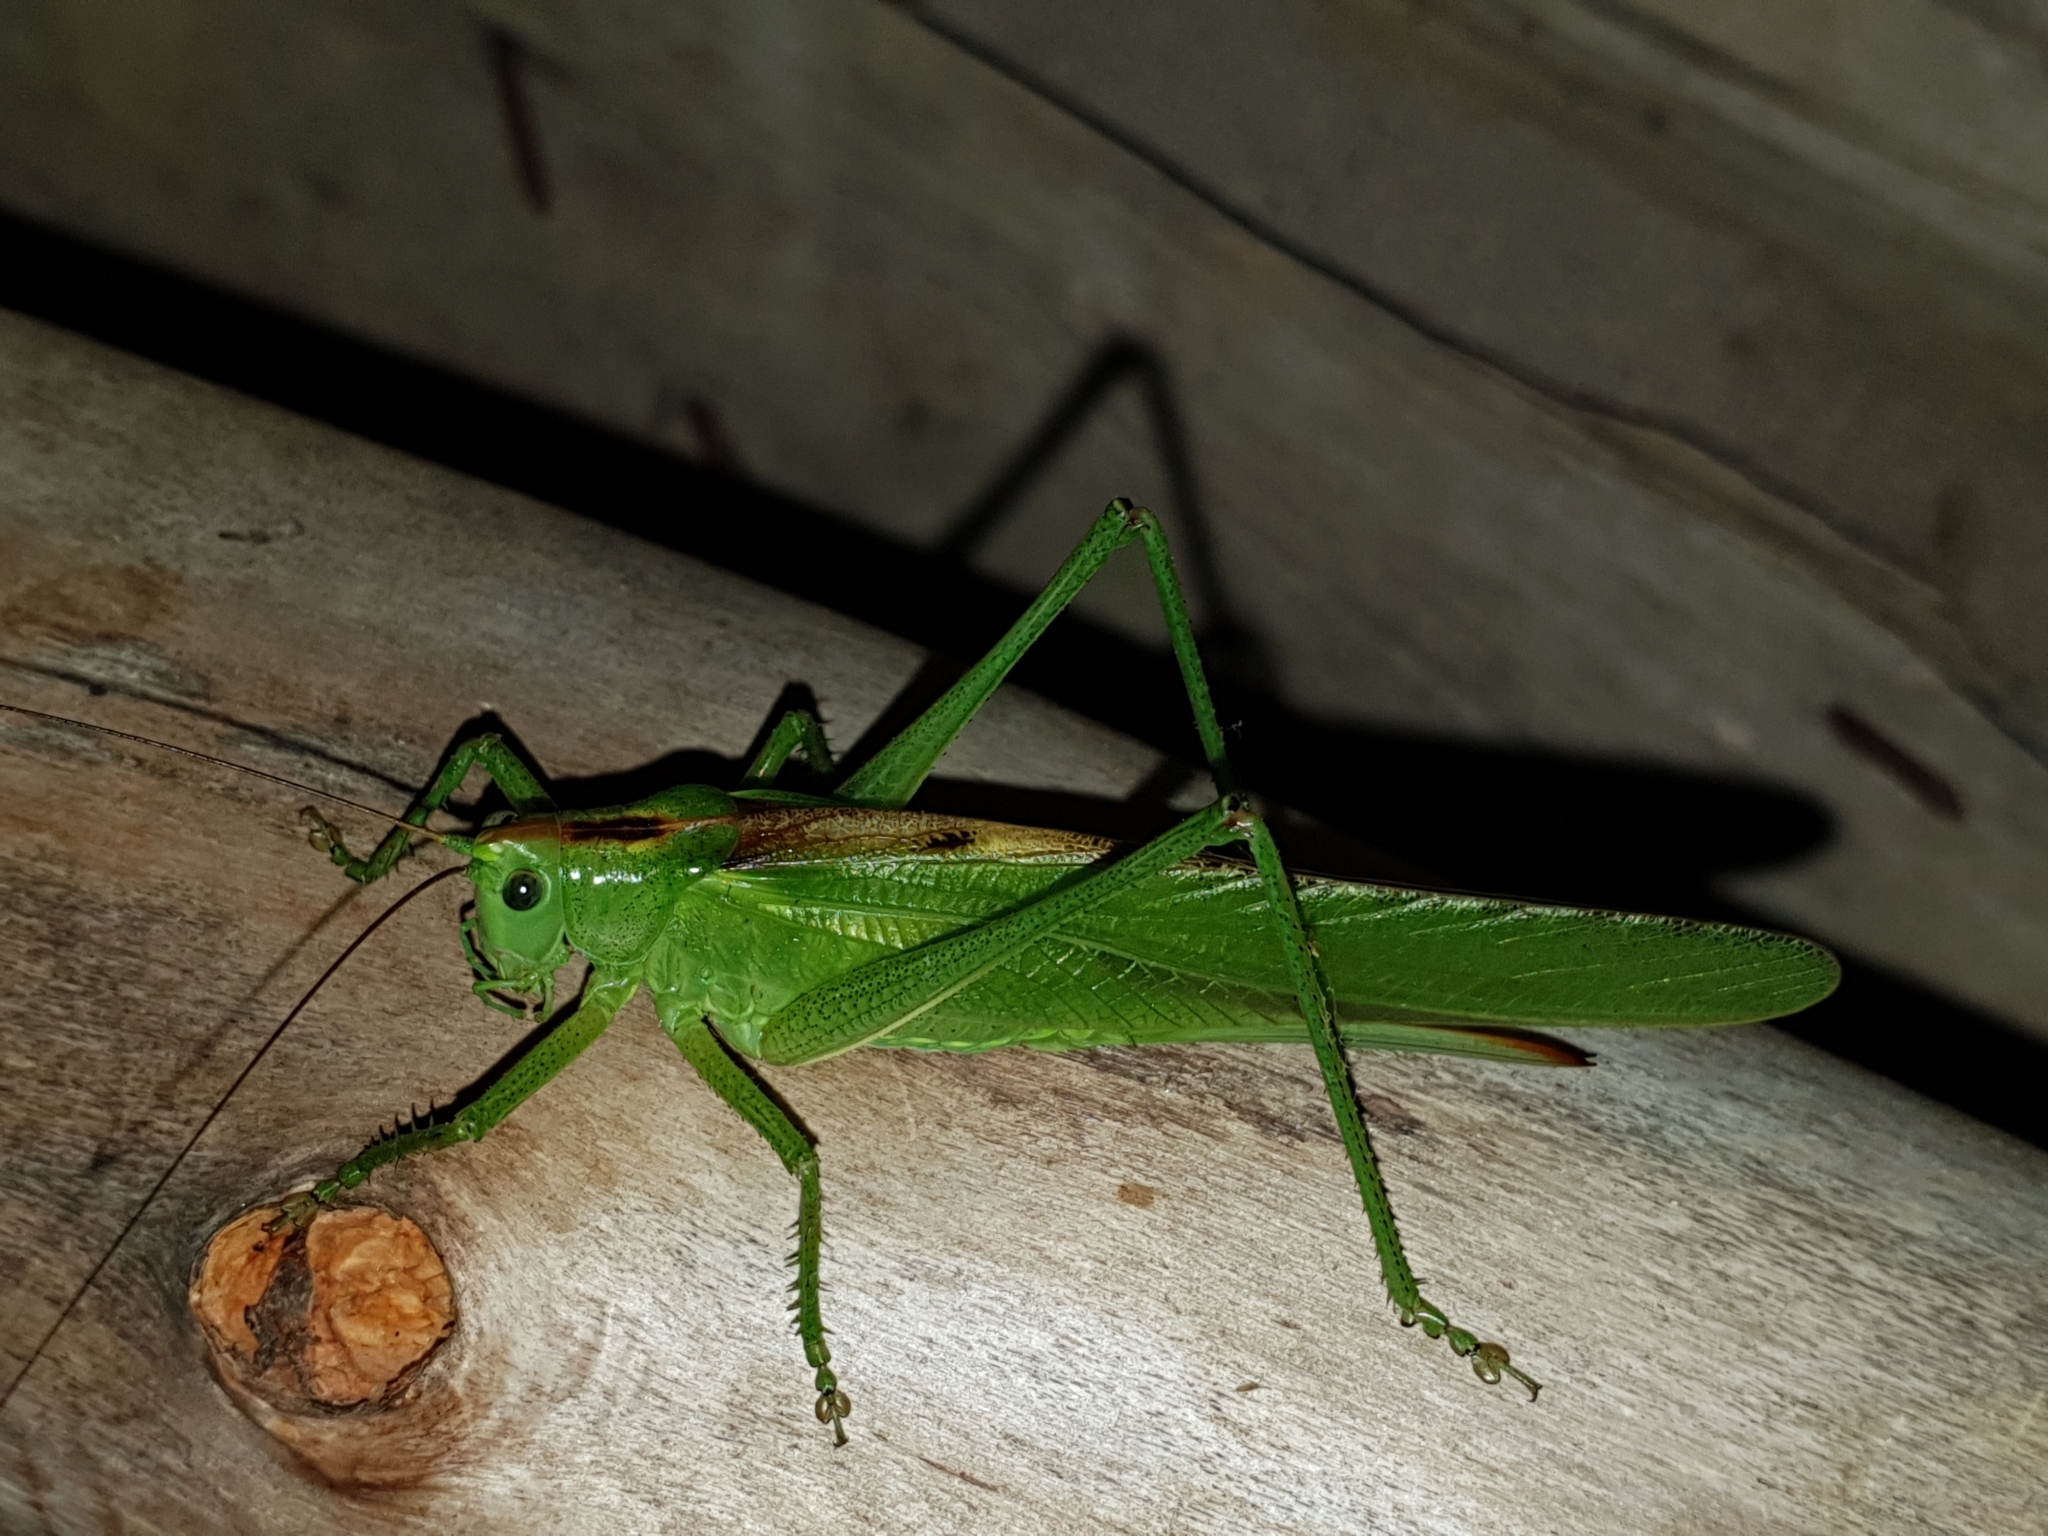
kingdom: Animalia
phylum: Arthropoda
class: Insecta
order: Orthoptera
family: Tettigoniidae
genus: Tettigonia
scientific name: Tettigonia viridissima
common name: Great green bush-cricket
